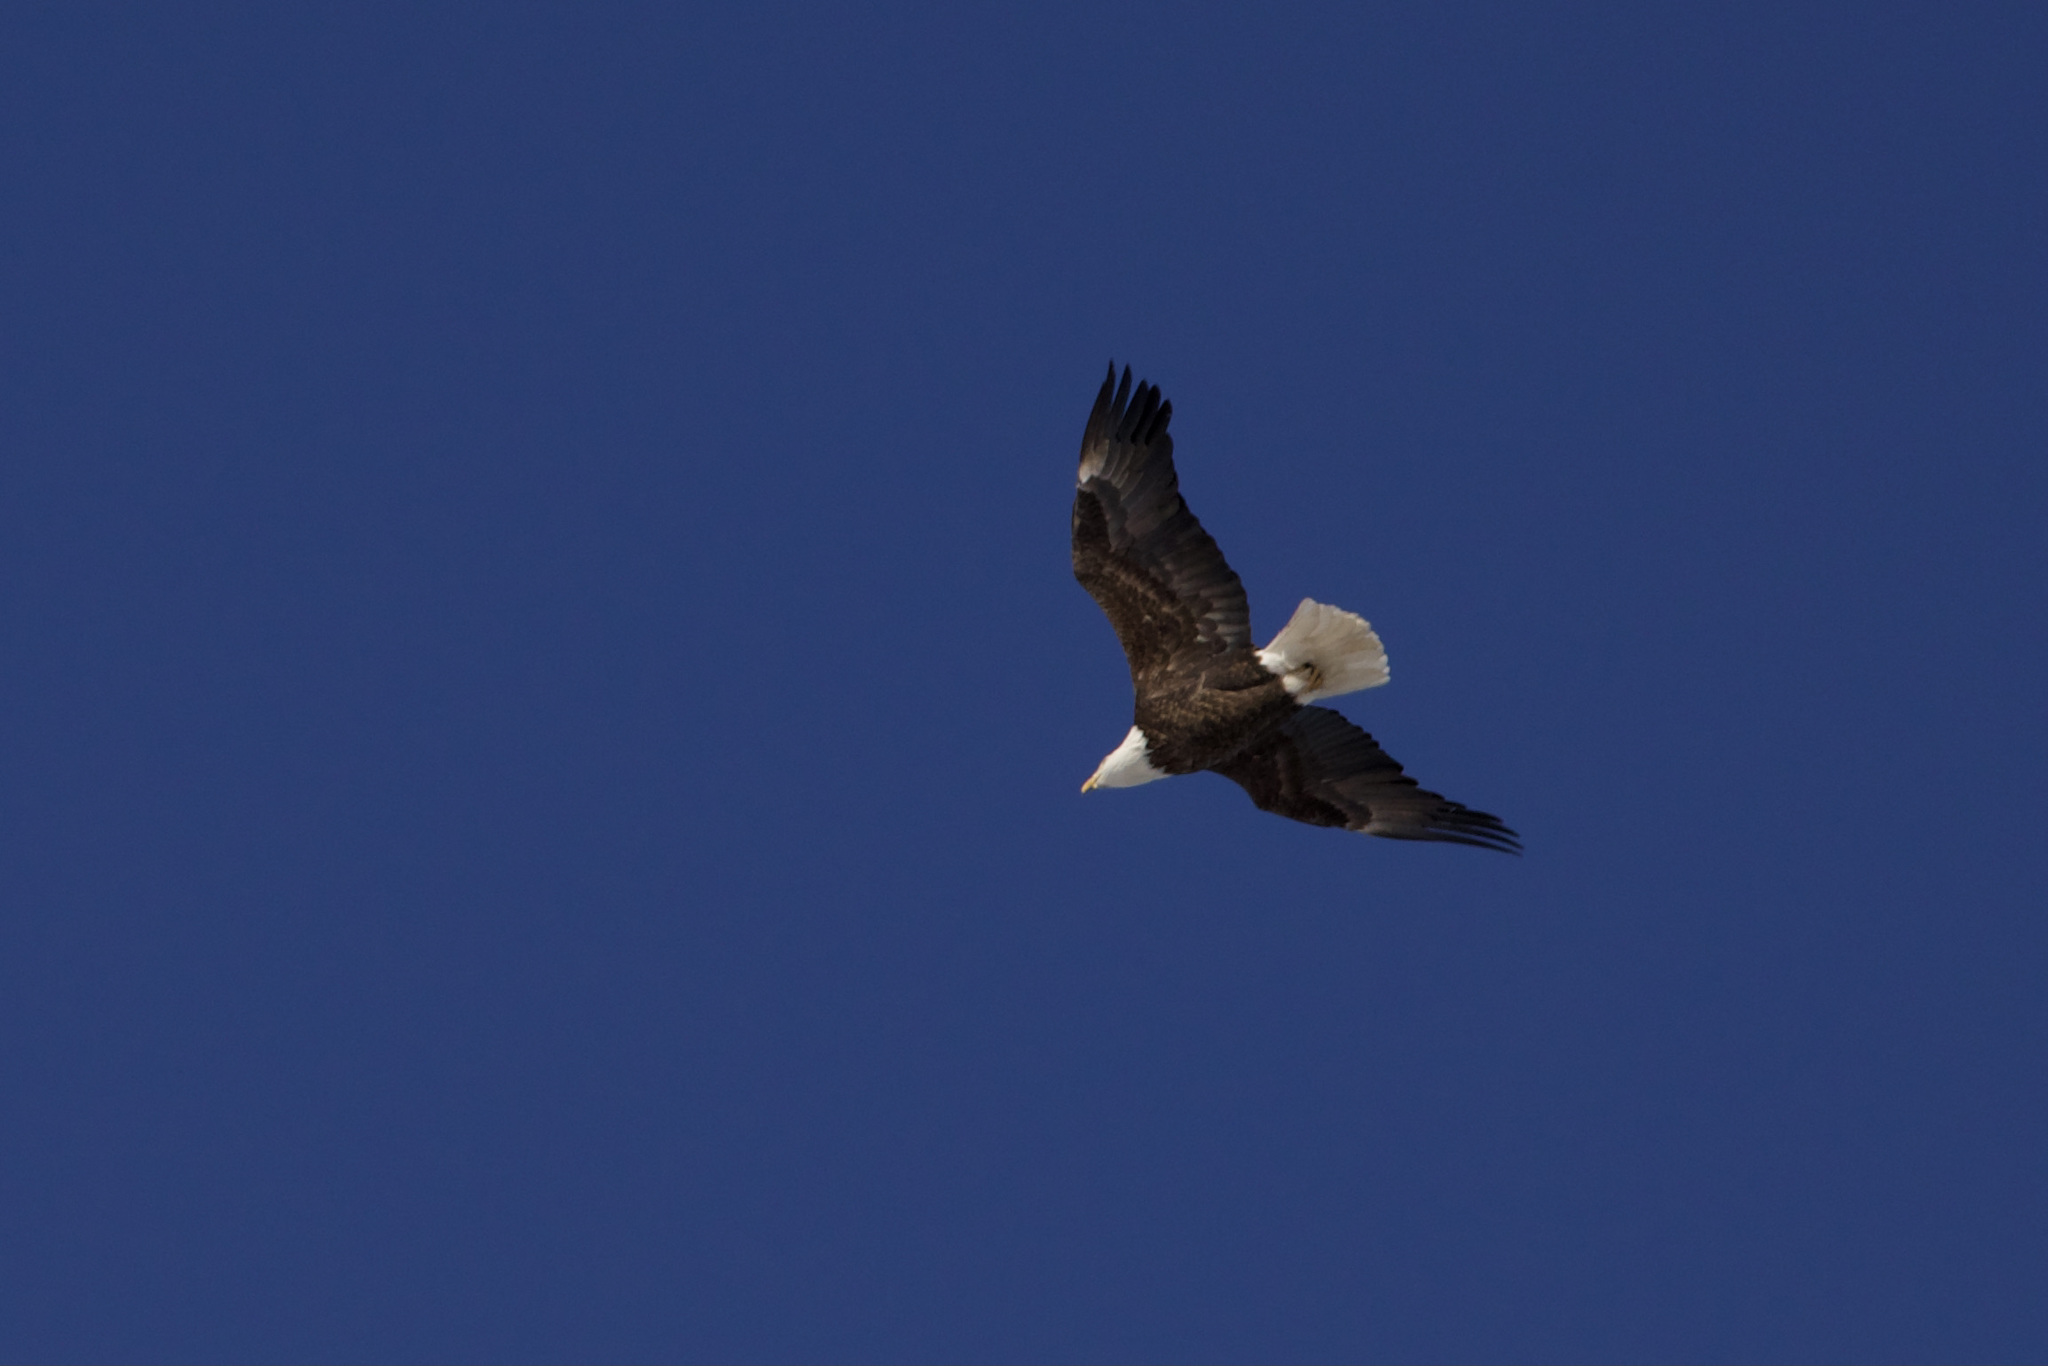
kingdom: Animalia
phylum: Chordata
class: Aves
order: Accipitriformes
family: Accipitridae
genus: Haliaeetus
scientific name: Haliaeetus leucocephalus
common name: Bald eagle
